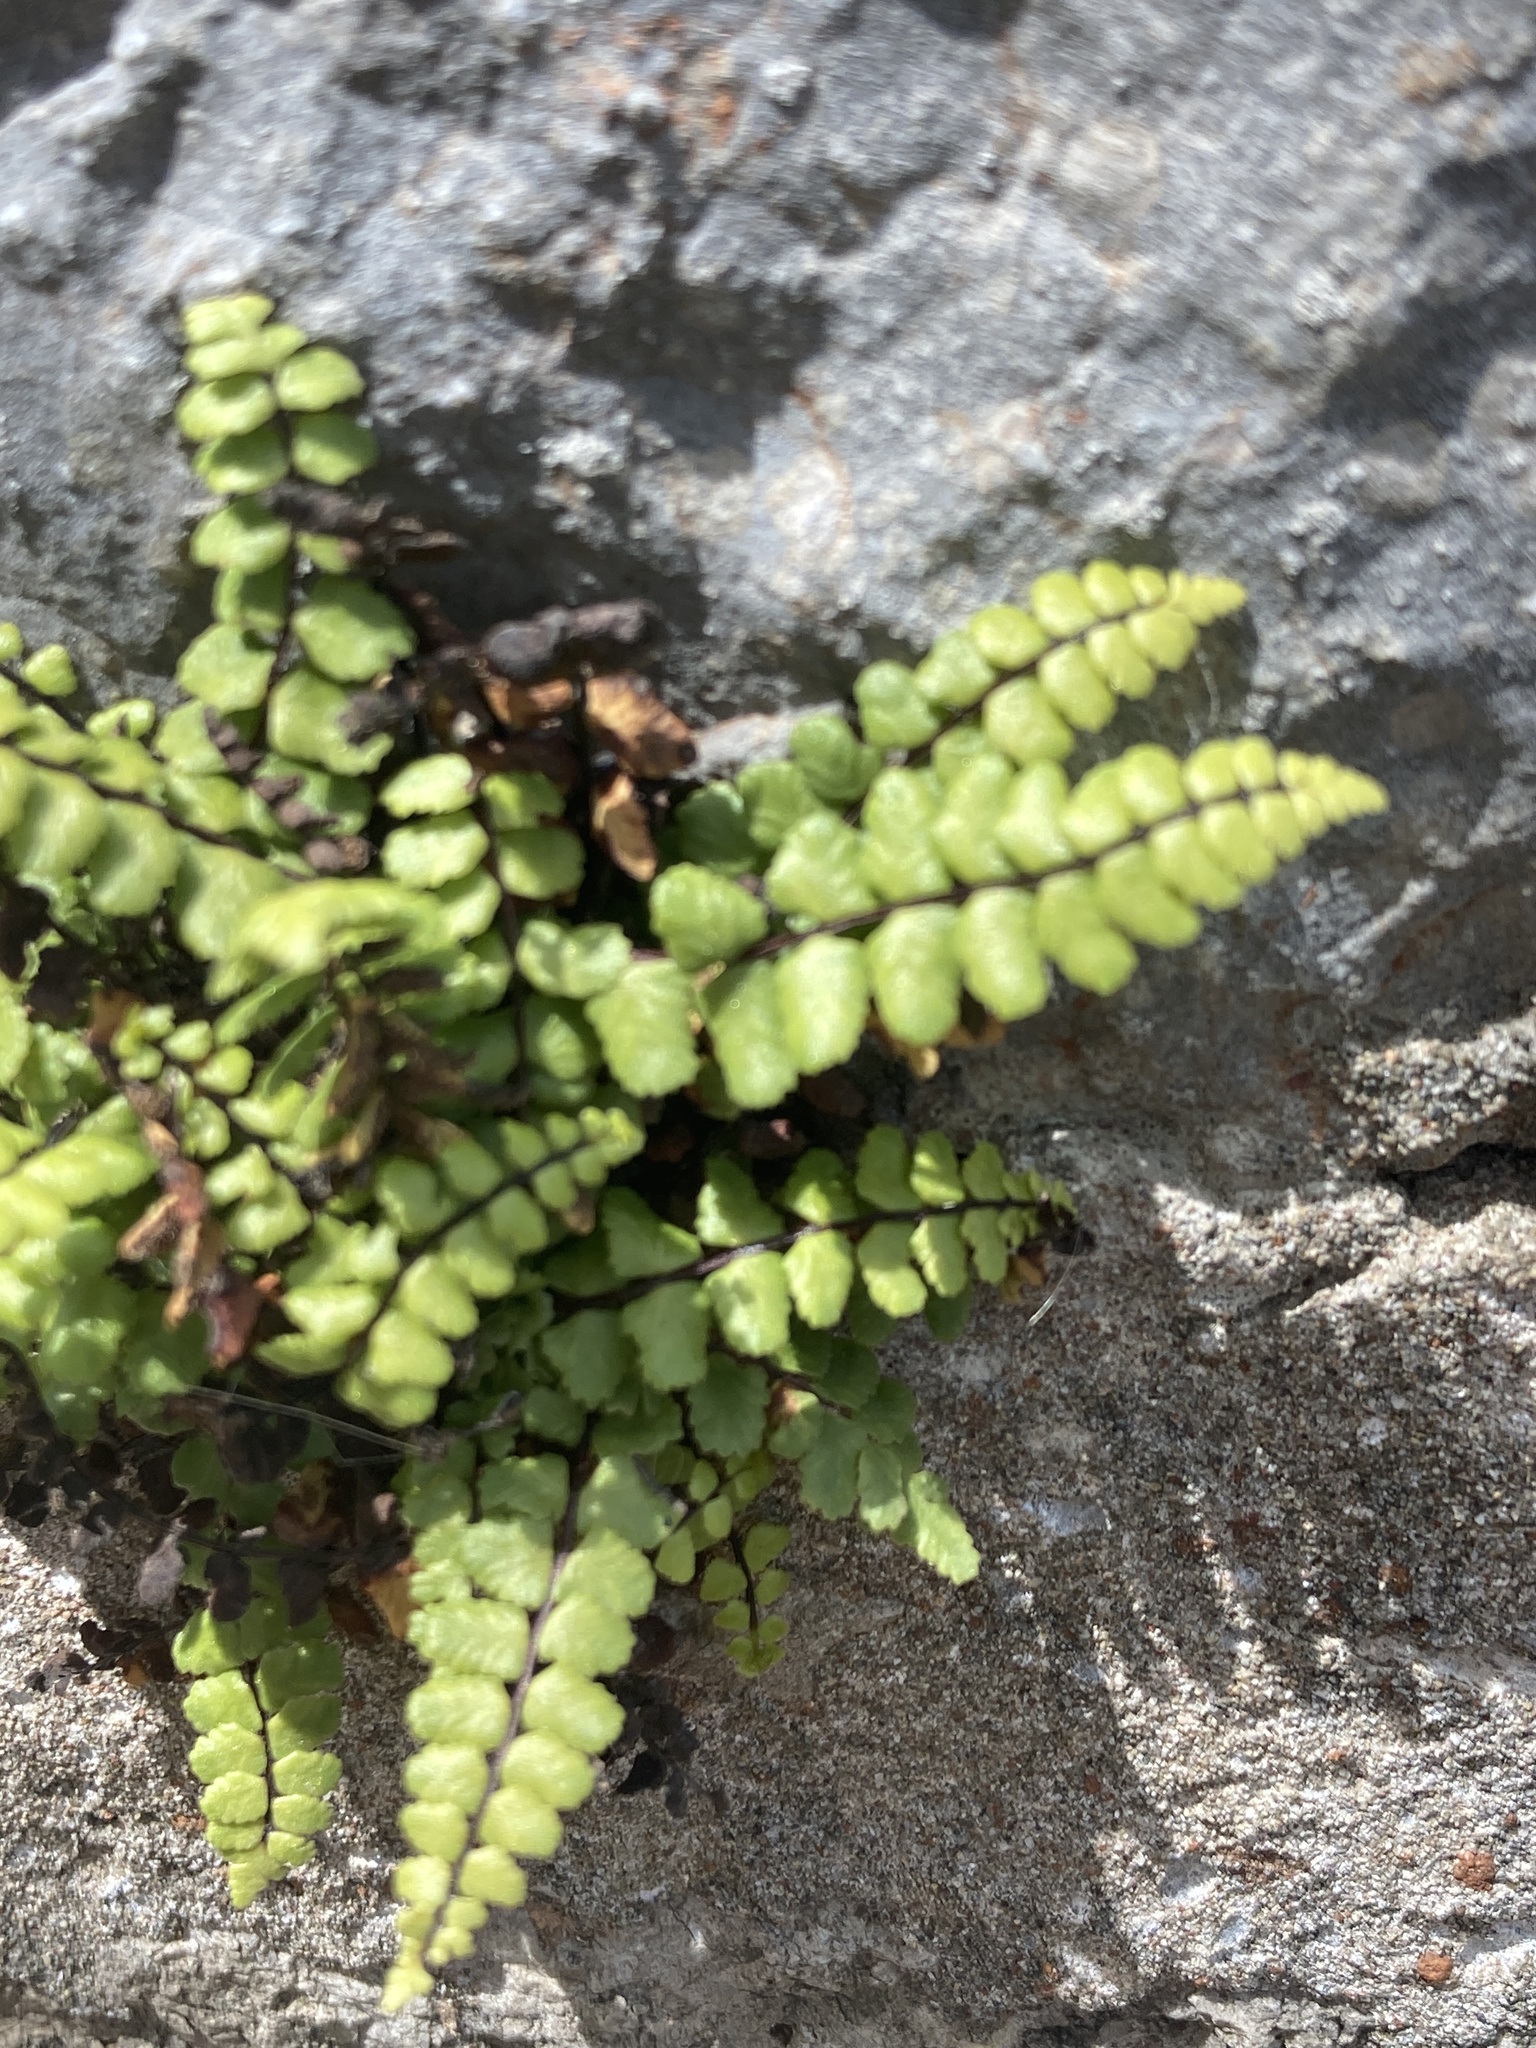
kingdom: Plantae
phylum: Tracheophyta
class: Polypodiopsida
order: Polypodiales
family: Aspleniaceae
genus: Asplenium
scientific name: Asplenium trichomanes
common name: Maidenhair spleenwort
